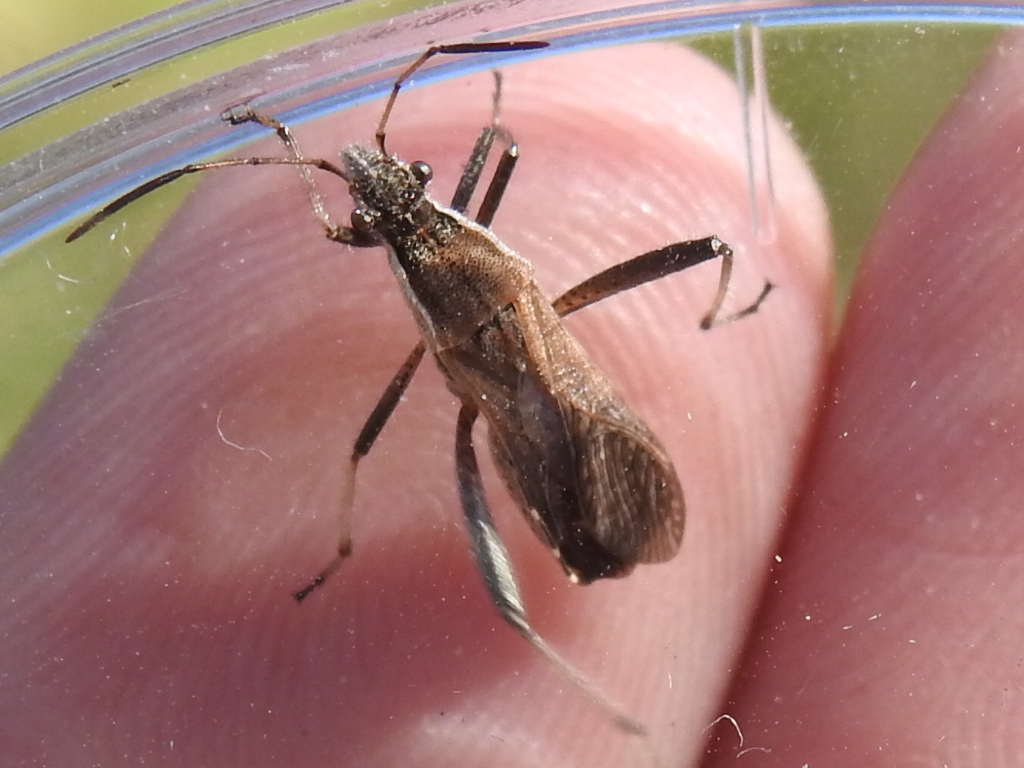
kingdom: Animalia
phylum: Arthropoda
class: Insecta
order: Hemiptera
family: Alydidae
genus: Alydus
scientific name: Alydus pilosulus
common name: Broad-headed bug
